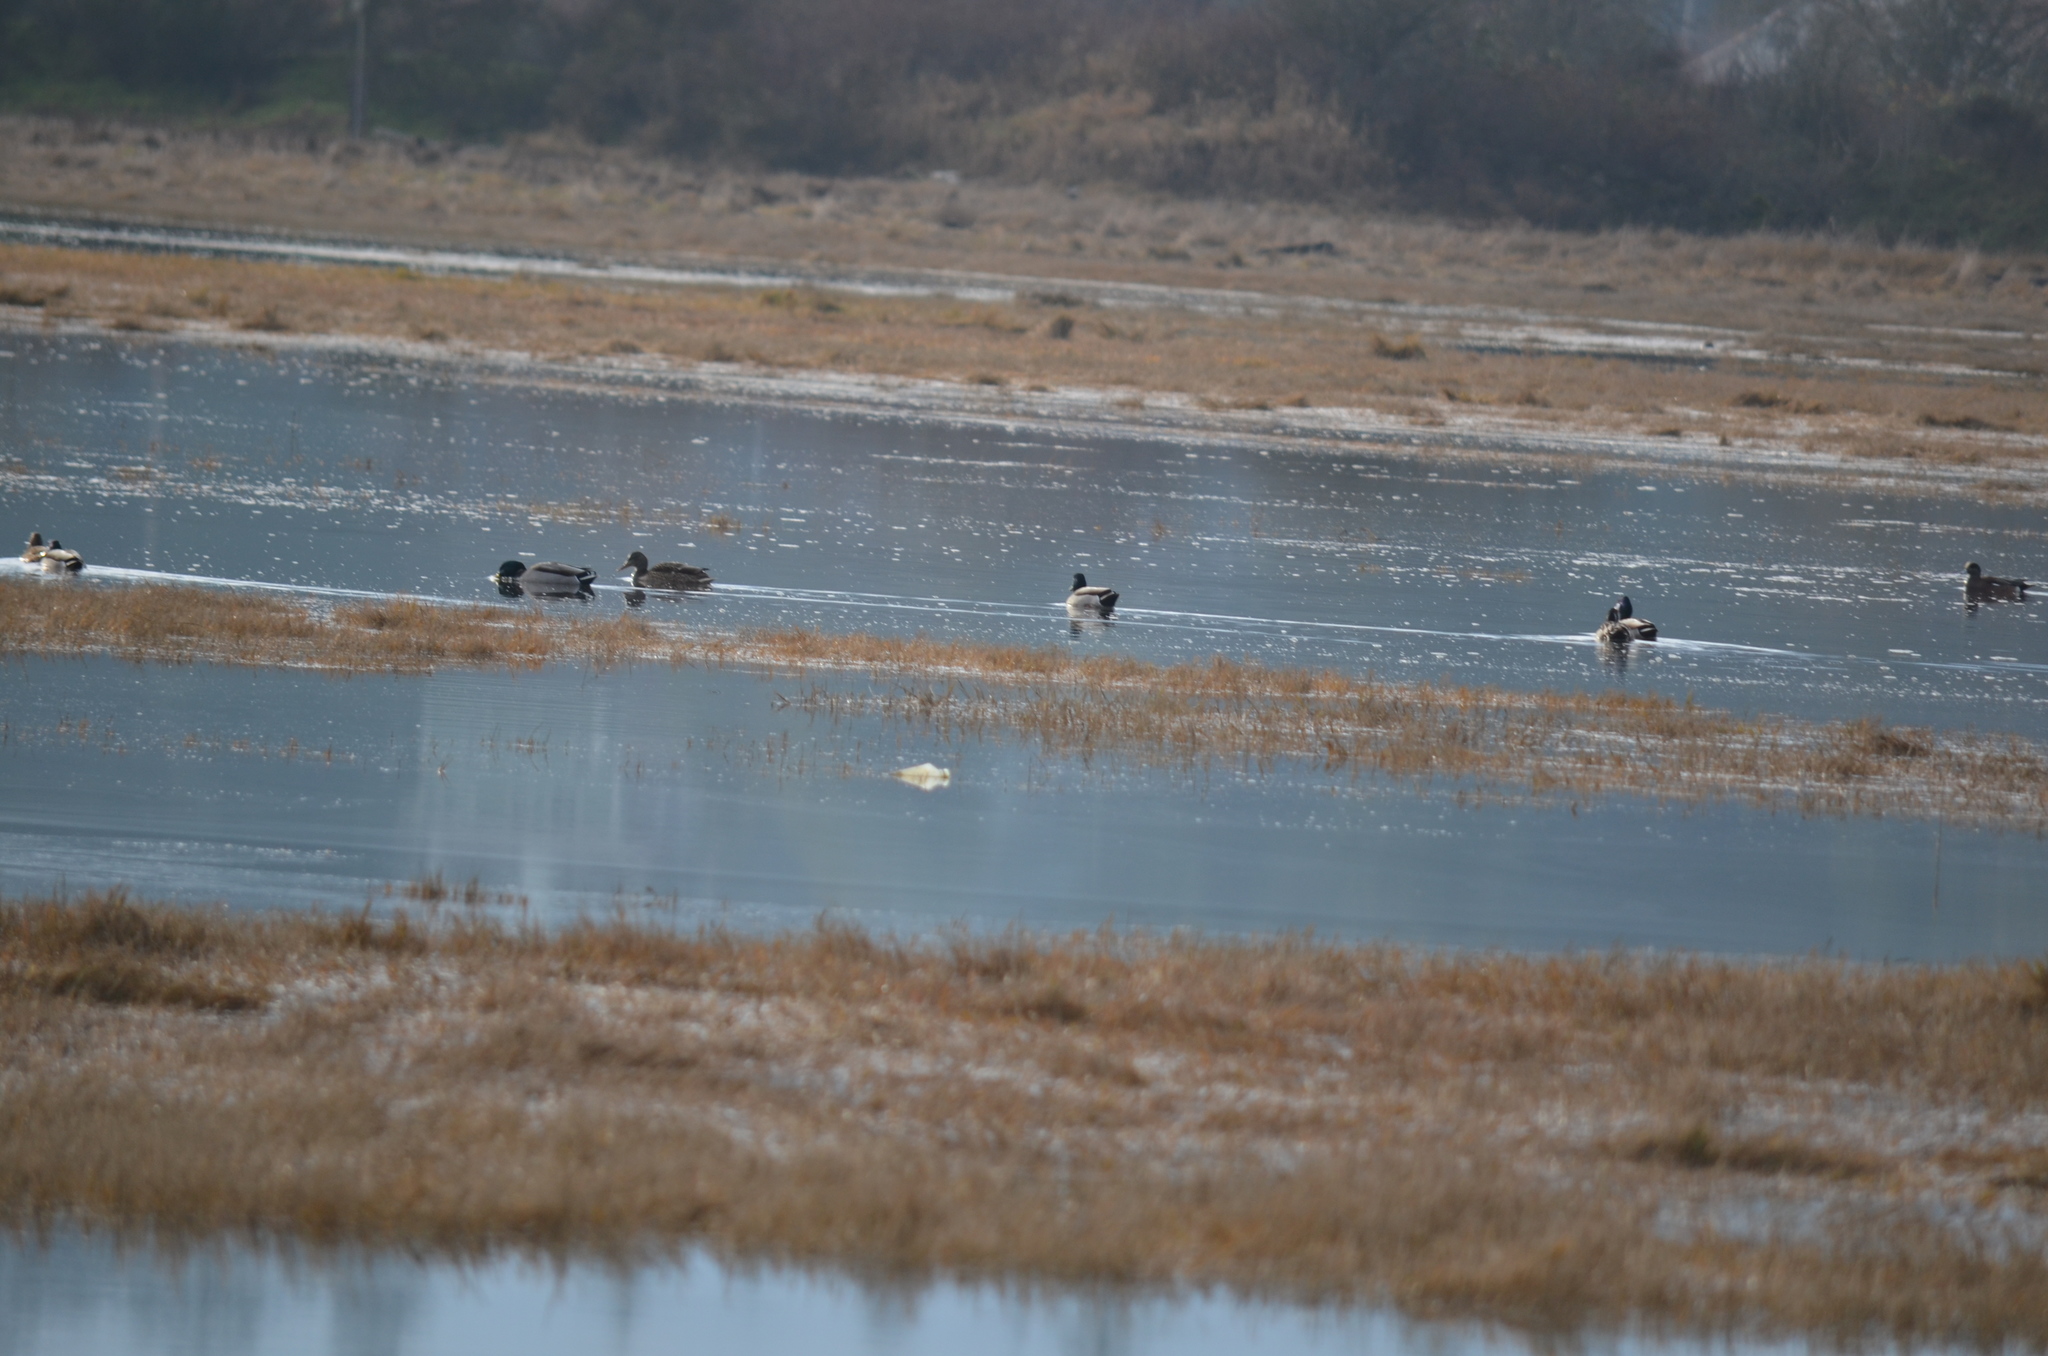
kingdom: Animalia
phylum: Chordata
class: Aves
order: Anseriformes
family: Anatidae
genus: Anas
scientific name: Anas platyrhynchos
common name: Mallard
